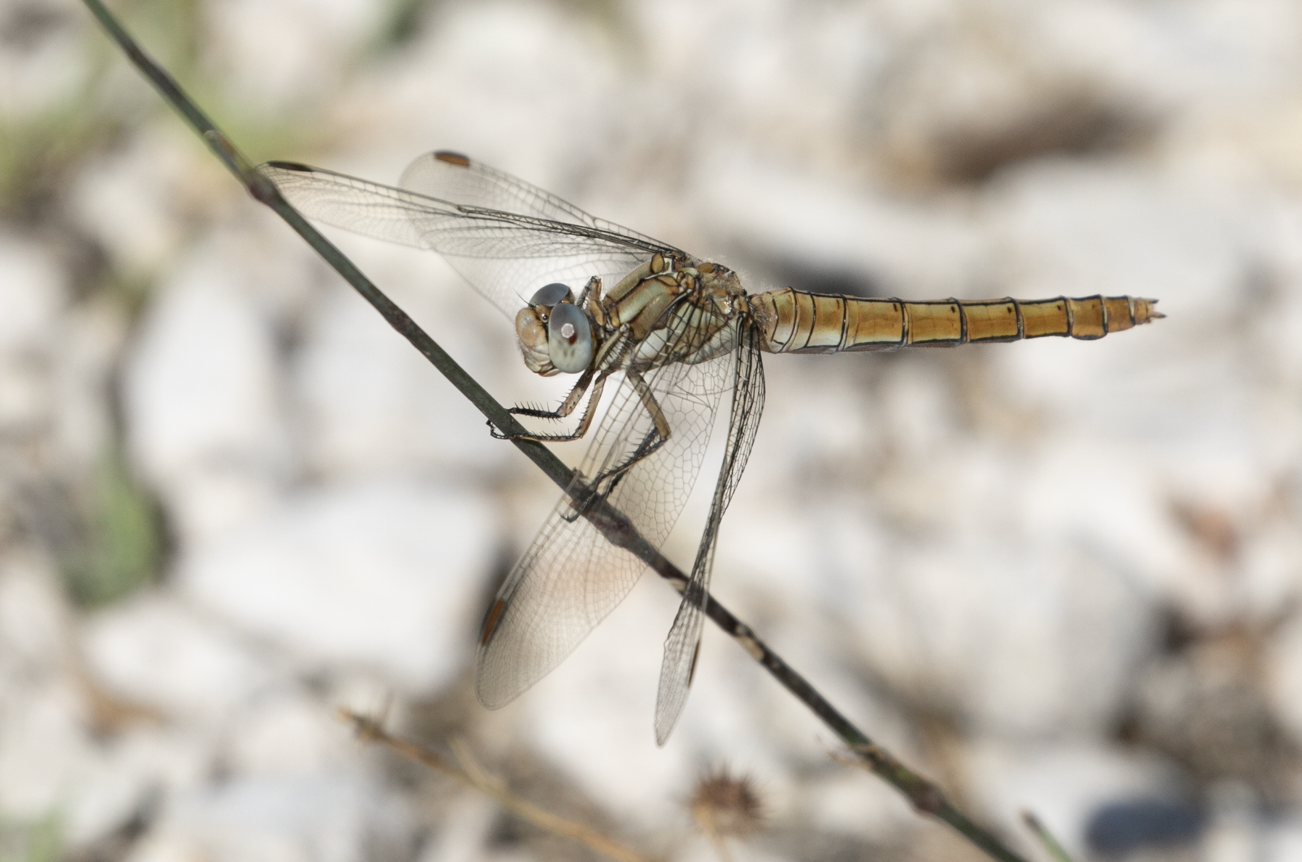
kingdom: Animalia
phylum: Arthropoda
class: Insecta
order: Odonata
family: Libellulidae
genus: Orthetrum
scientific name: Orthetrum brunneum
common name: Southern skimmer
